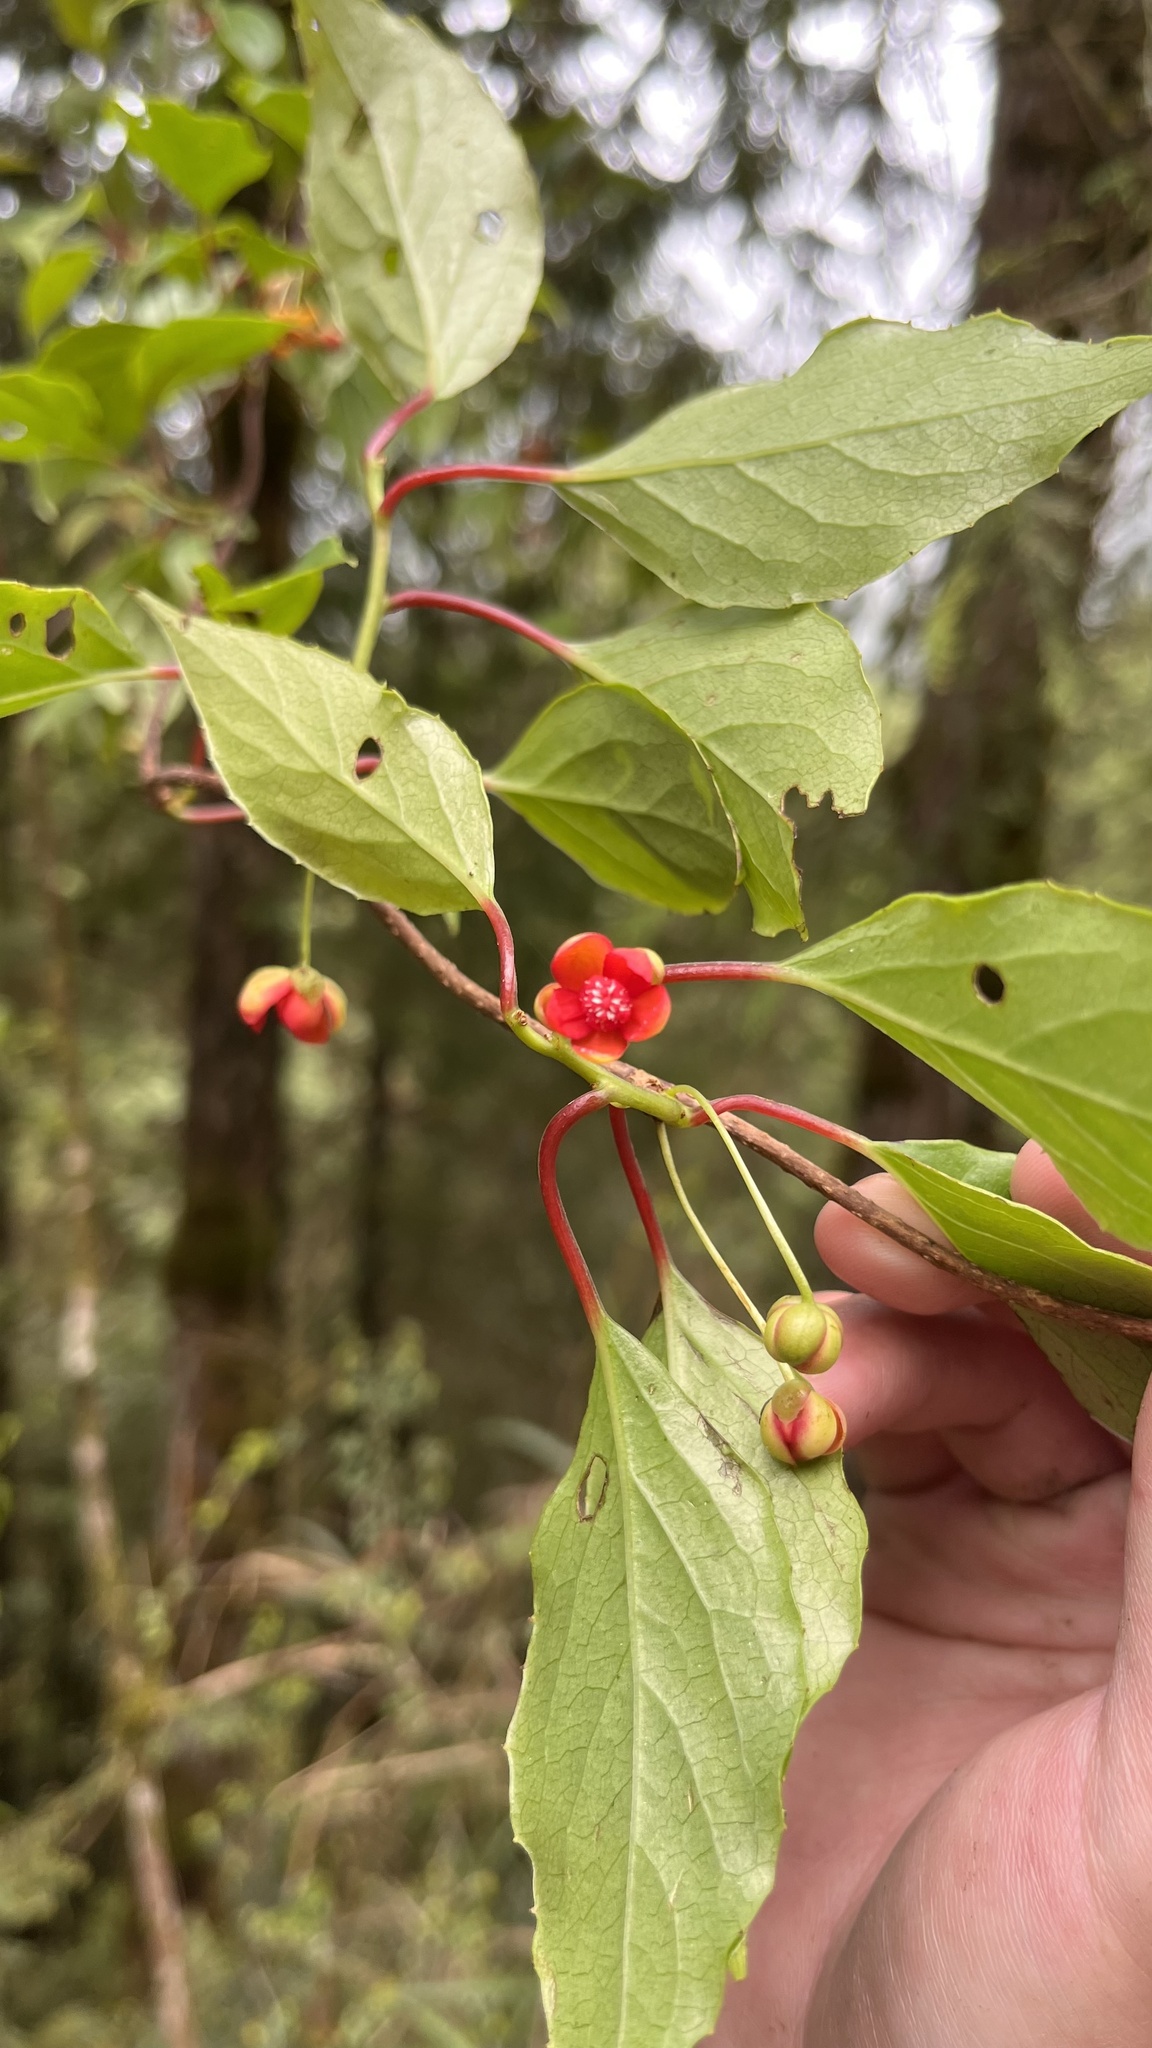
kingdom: Plantae
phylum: Tracheophyta
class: Magnoliopsida
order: Austrobaileyales
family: Schisandraceae
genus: Schisandra
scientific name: Schisandra arisanensis
